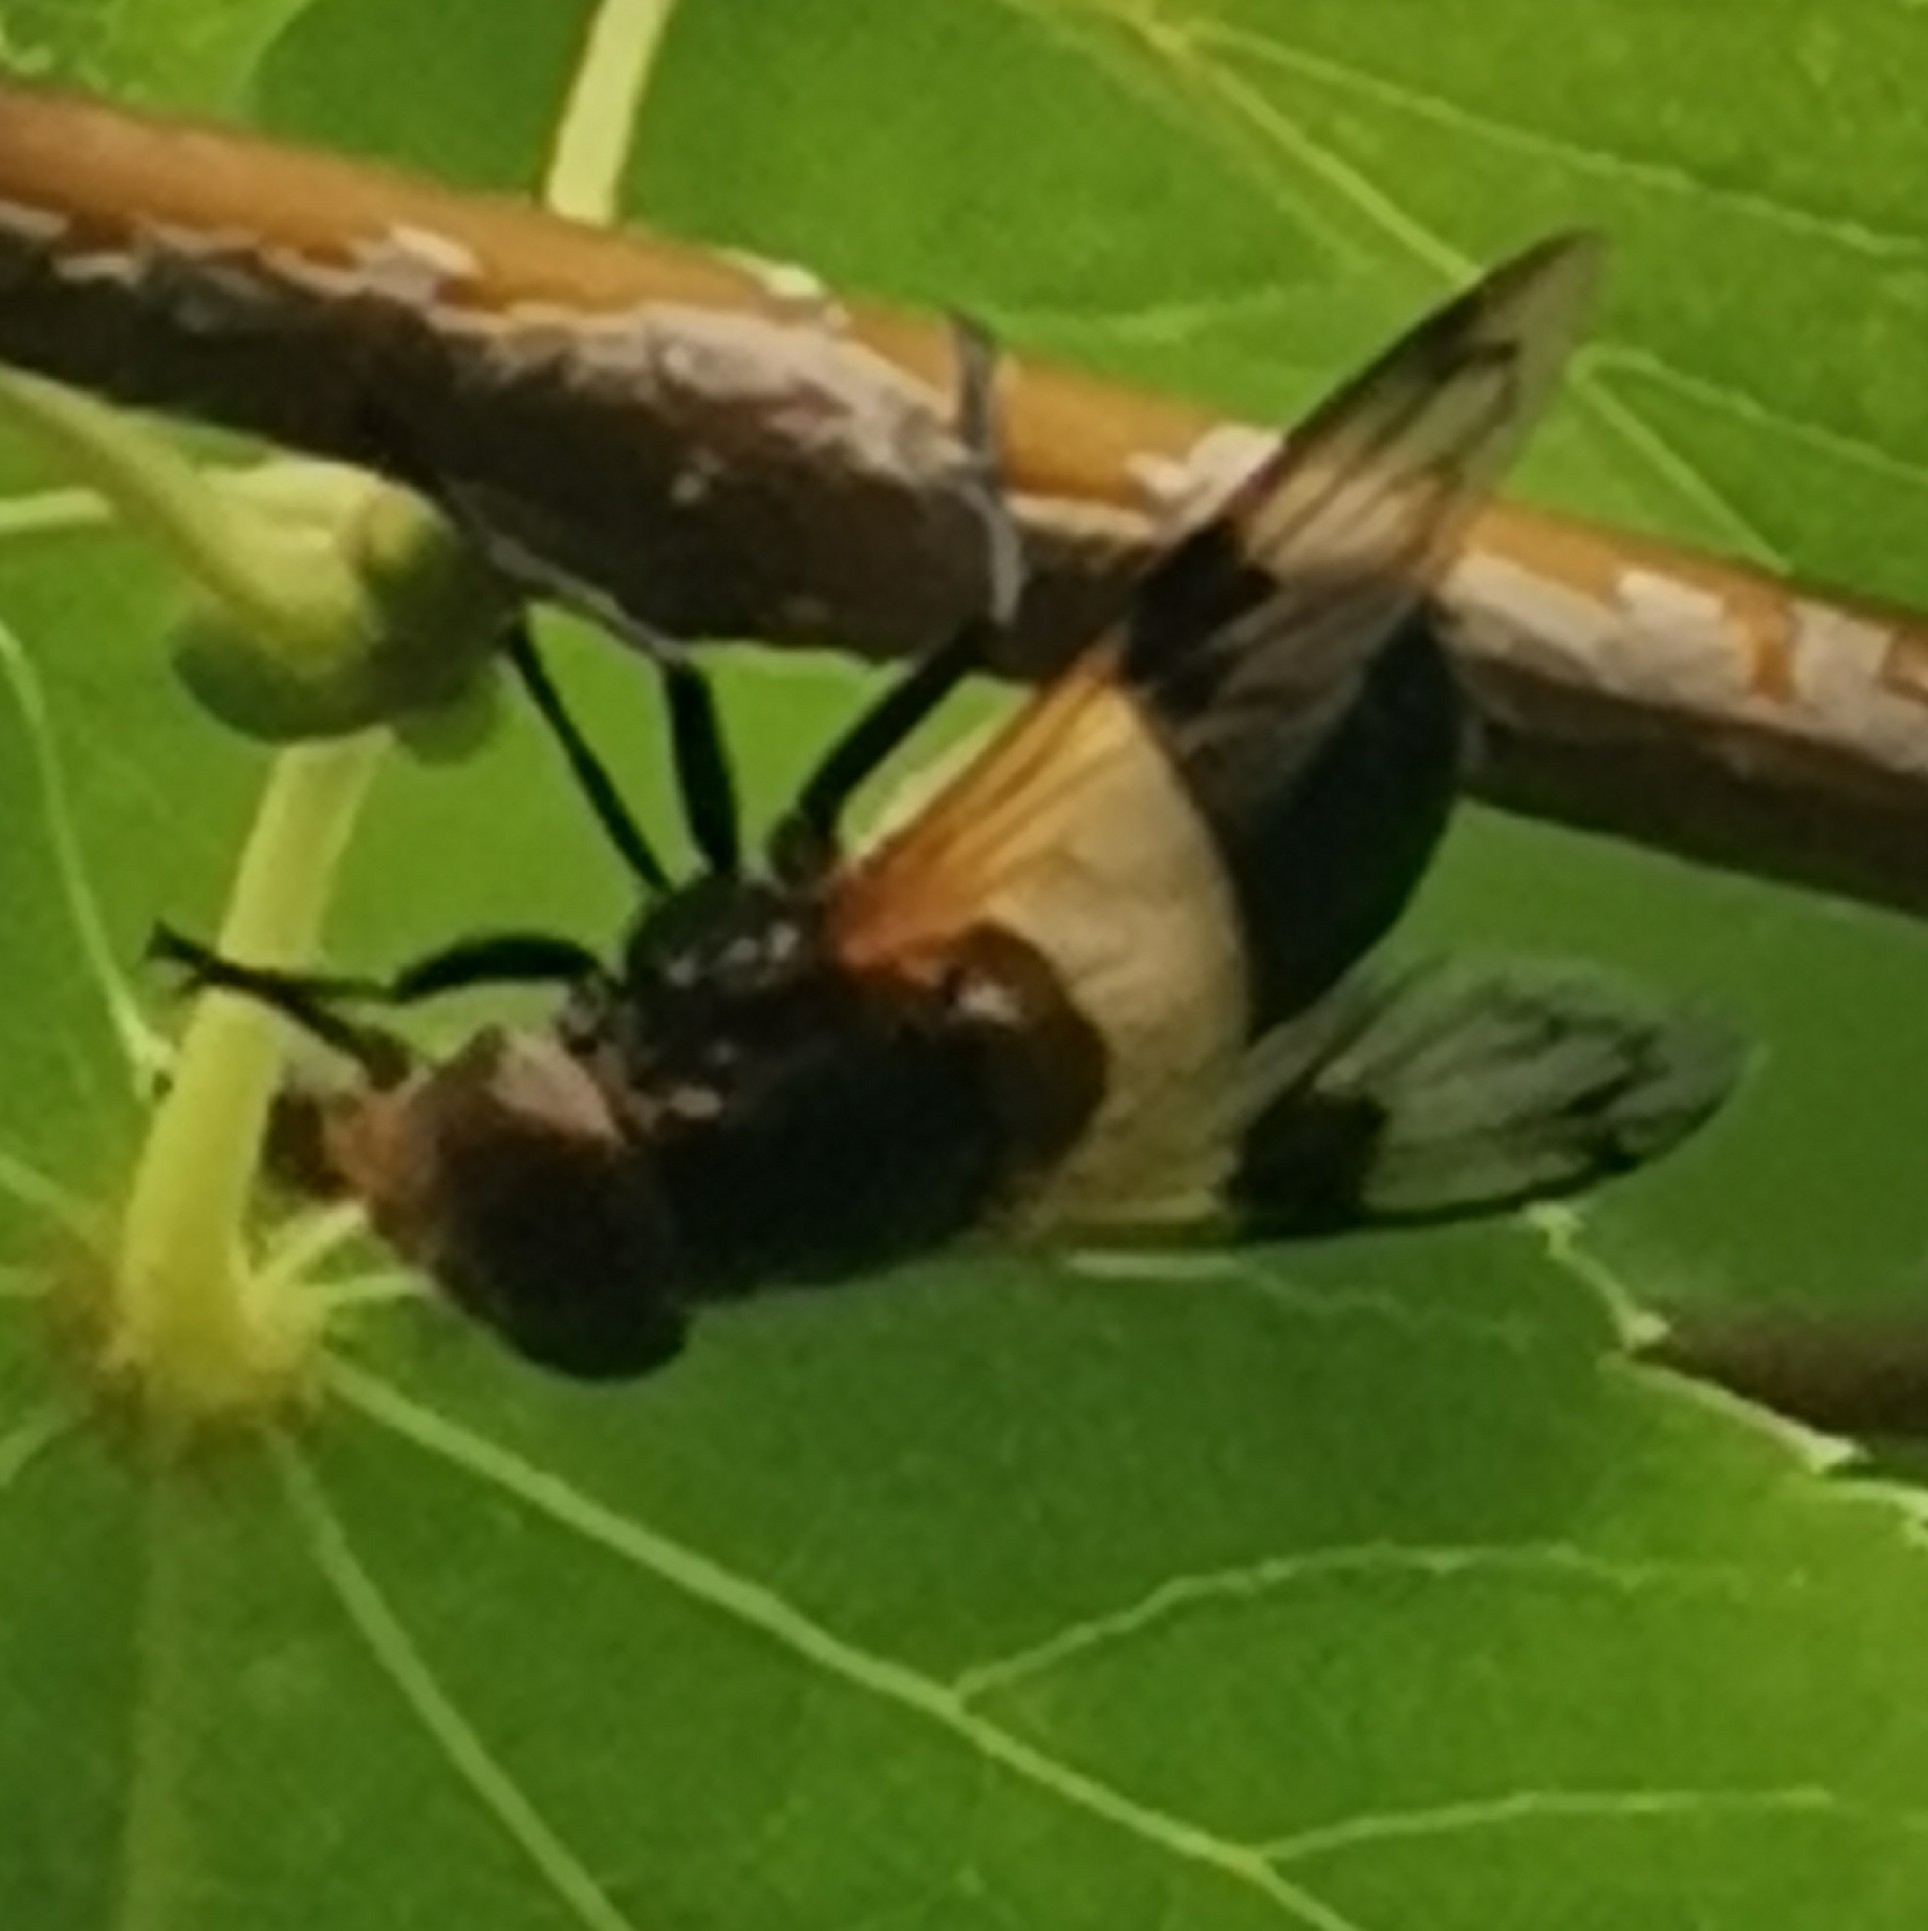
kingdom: Animalia
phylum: Arthropoda
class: Insecta
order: Diptera
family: Syrphidae
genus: Volucella
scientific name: Volucella pellucens
